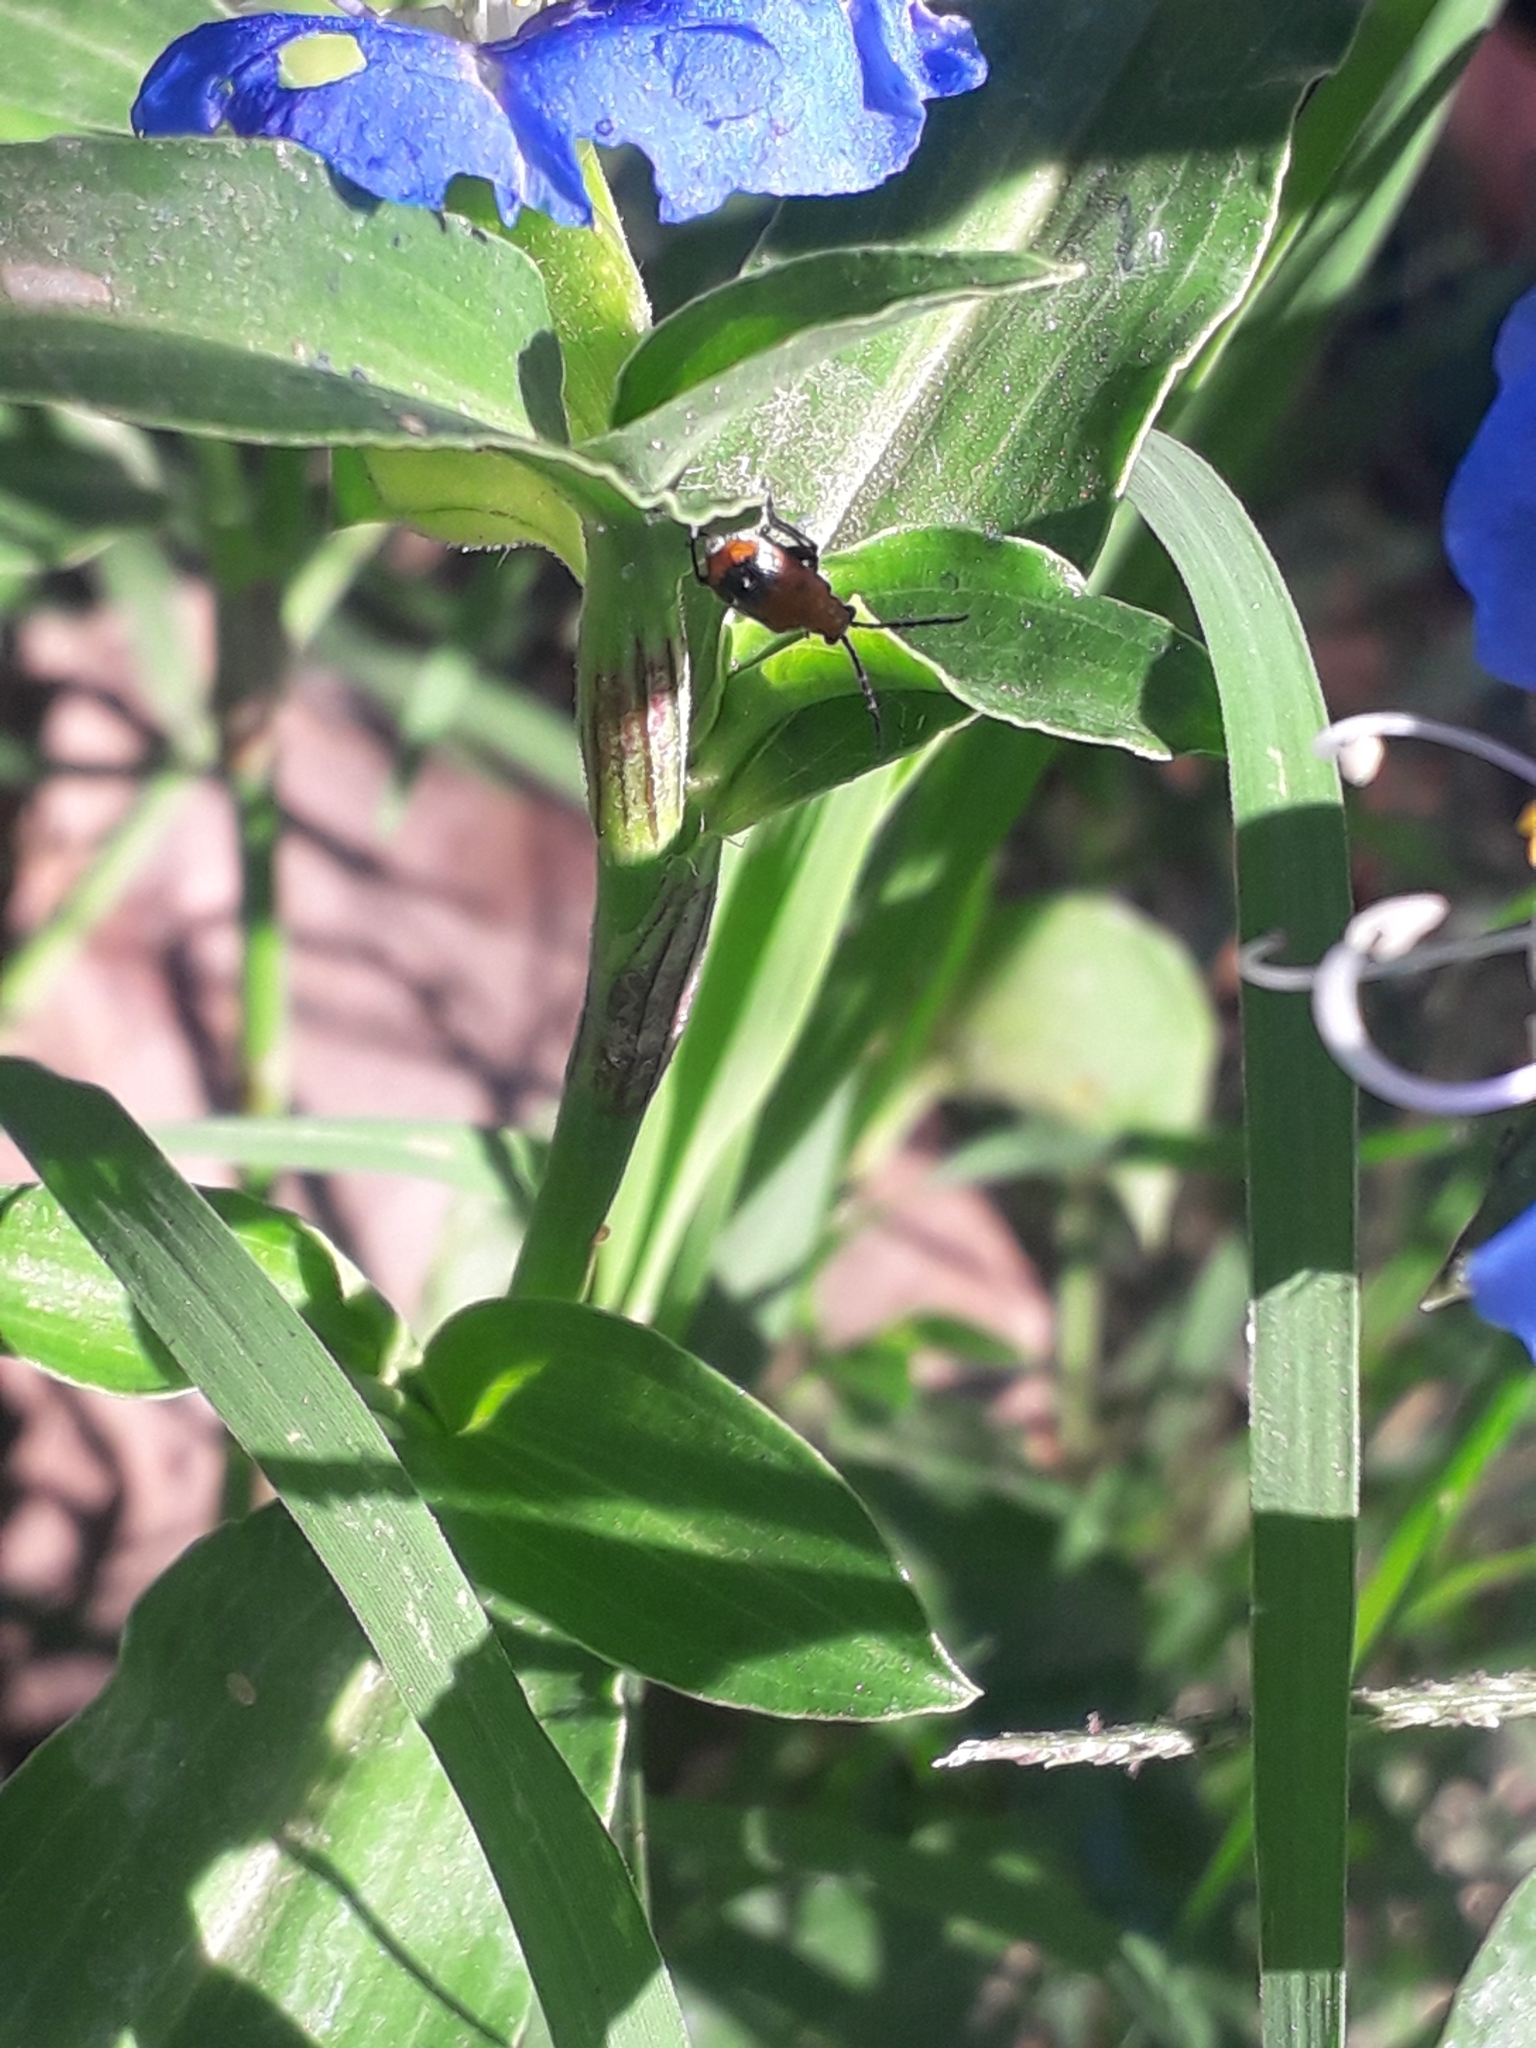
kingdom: Animalia
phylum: Arthropoda
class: Insecta
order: Coleoptera
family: Chrysomelidae
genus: Neolema
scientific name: Neolema dorsalis
